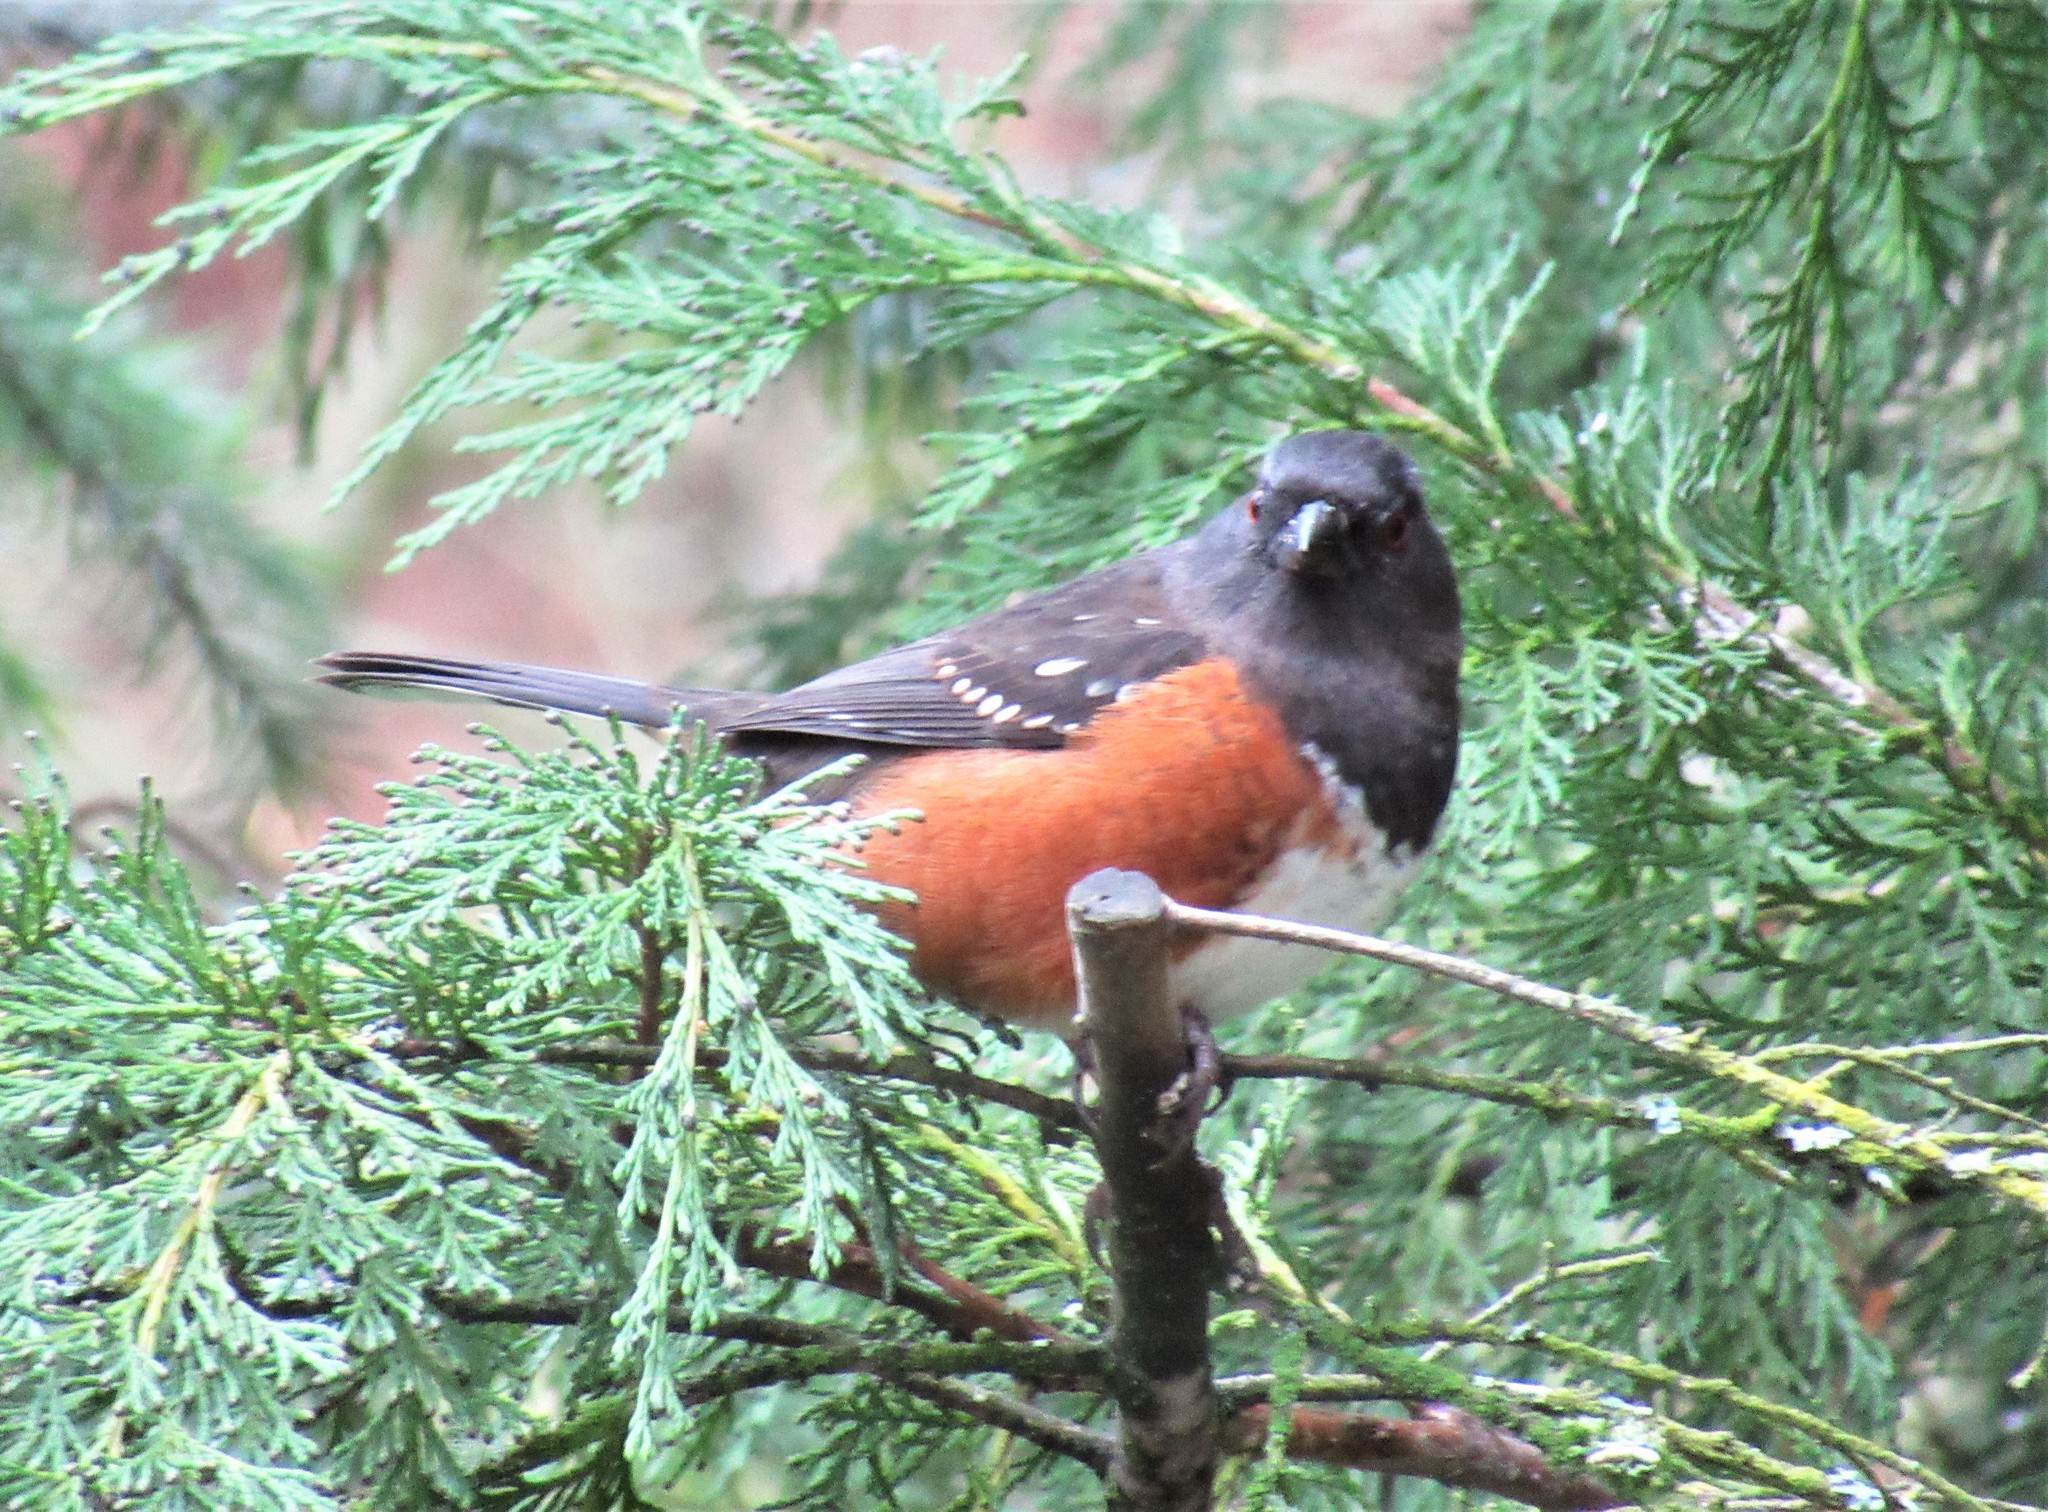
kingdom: Animalia
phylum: Chordata
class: Aves
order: Passeriformes
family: Passerellidae
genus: Pipilo
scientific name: Pipilo maculatus
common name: Spotted towhee
